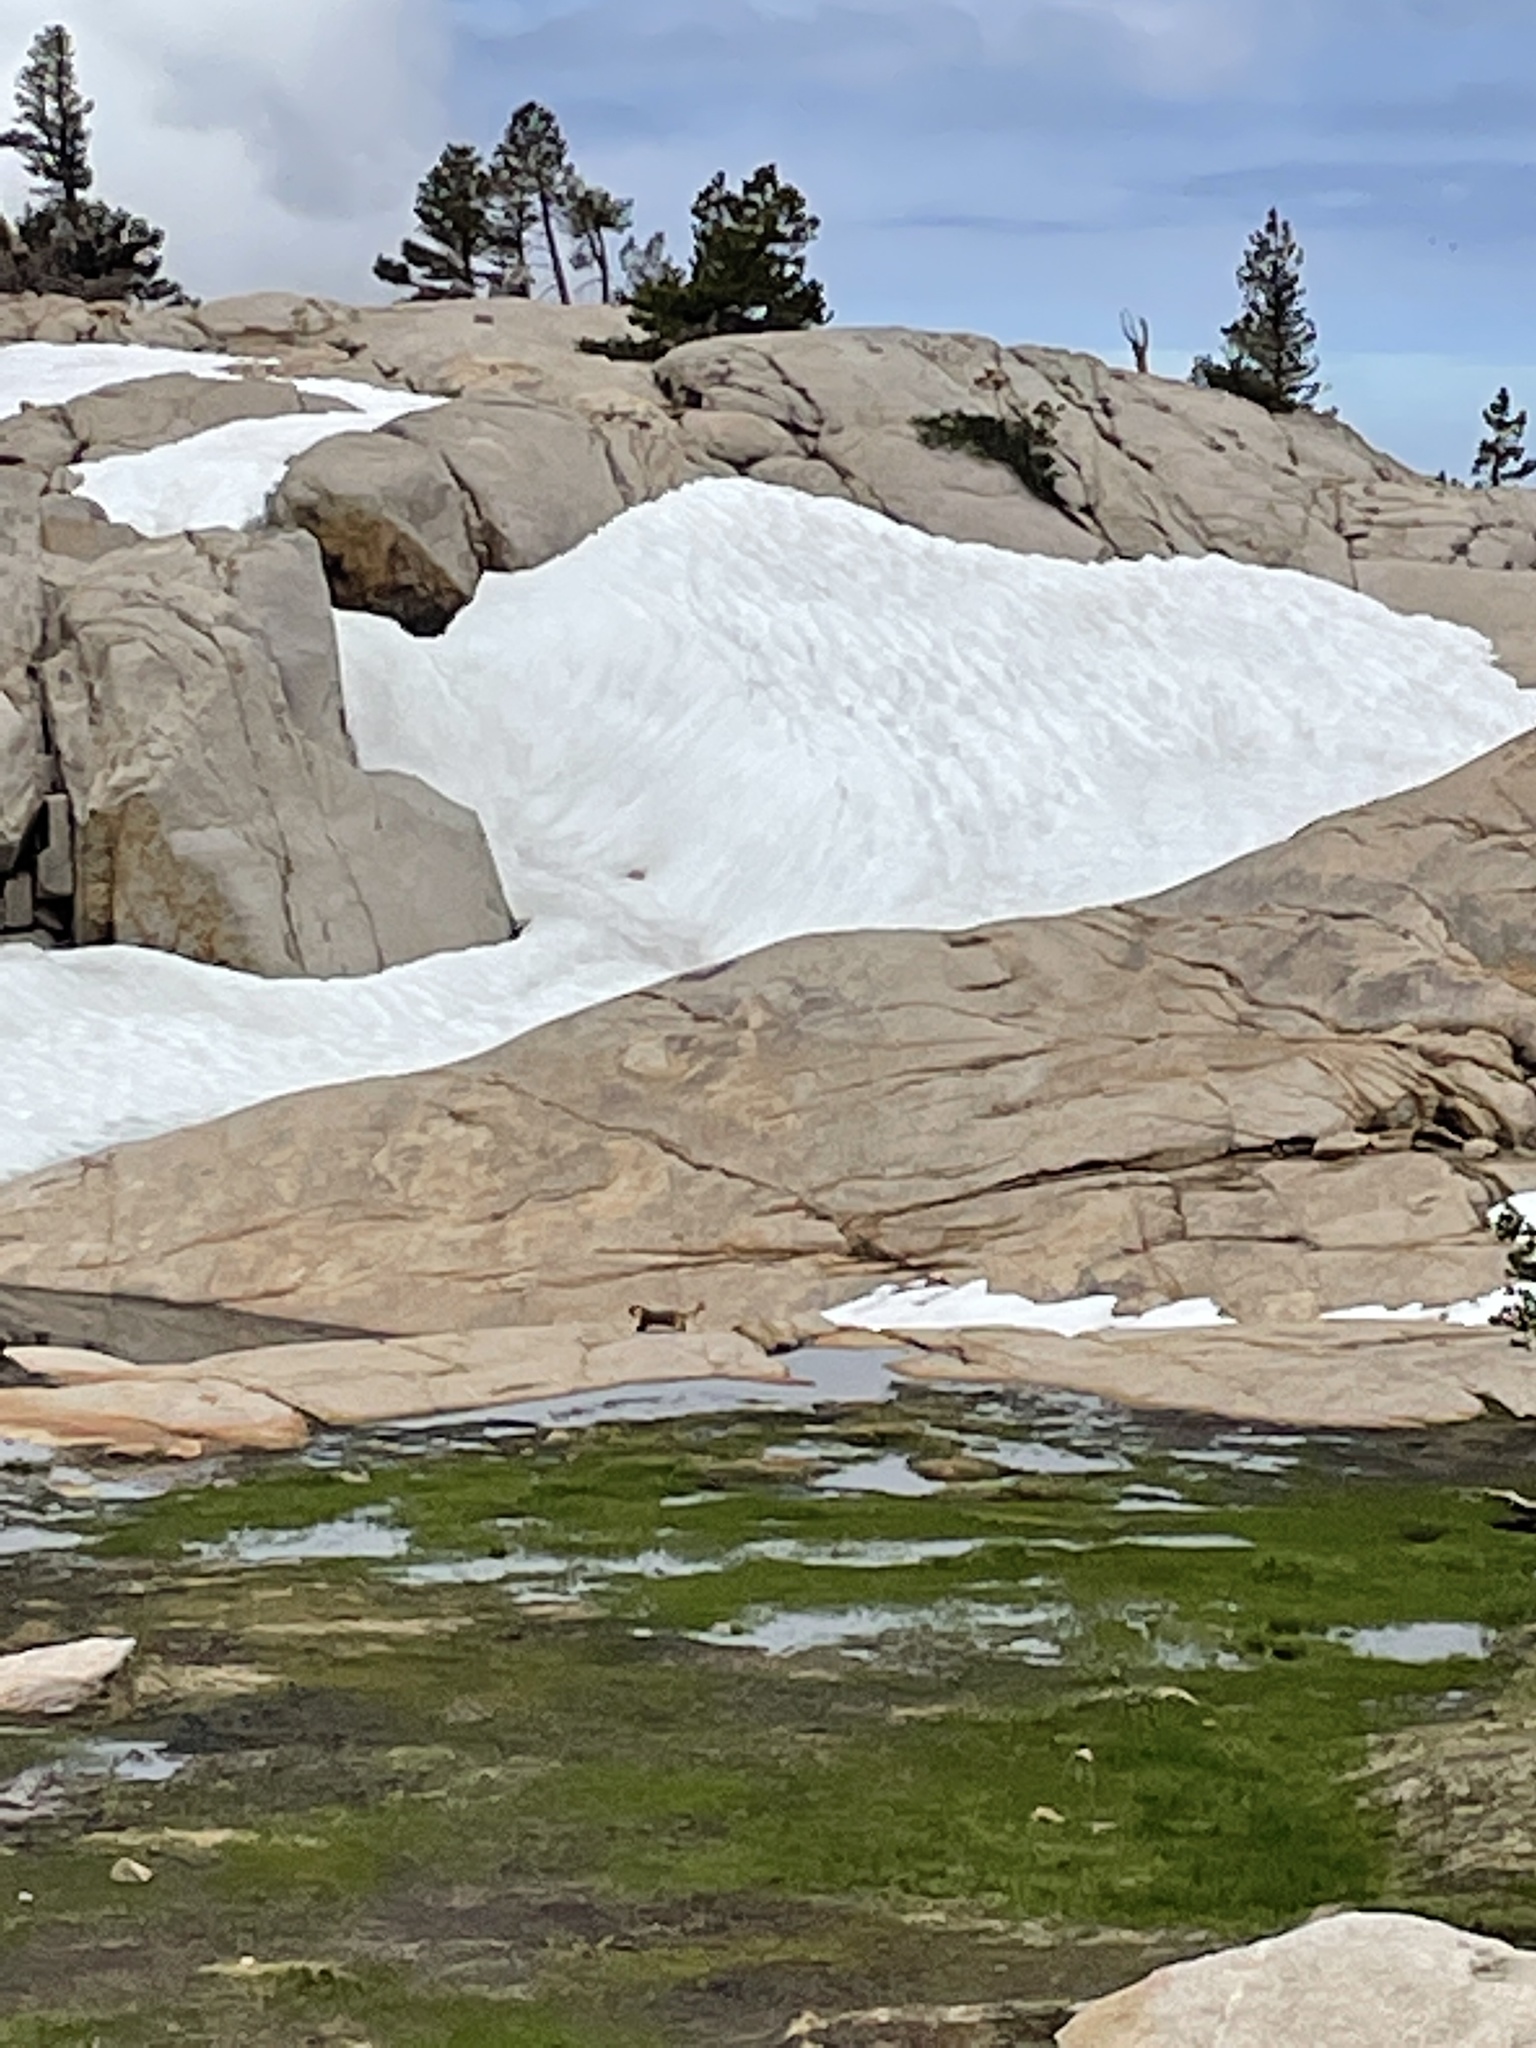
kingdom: Animalia
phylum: Chordata
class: Mammalia
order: Rodentia
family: Sciuridae
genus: Marmota
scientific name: Marmota flaviventris
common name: Yellow-bellied marmot
